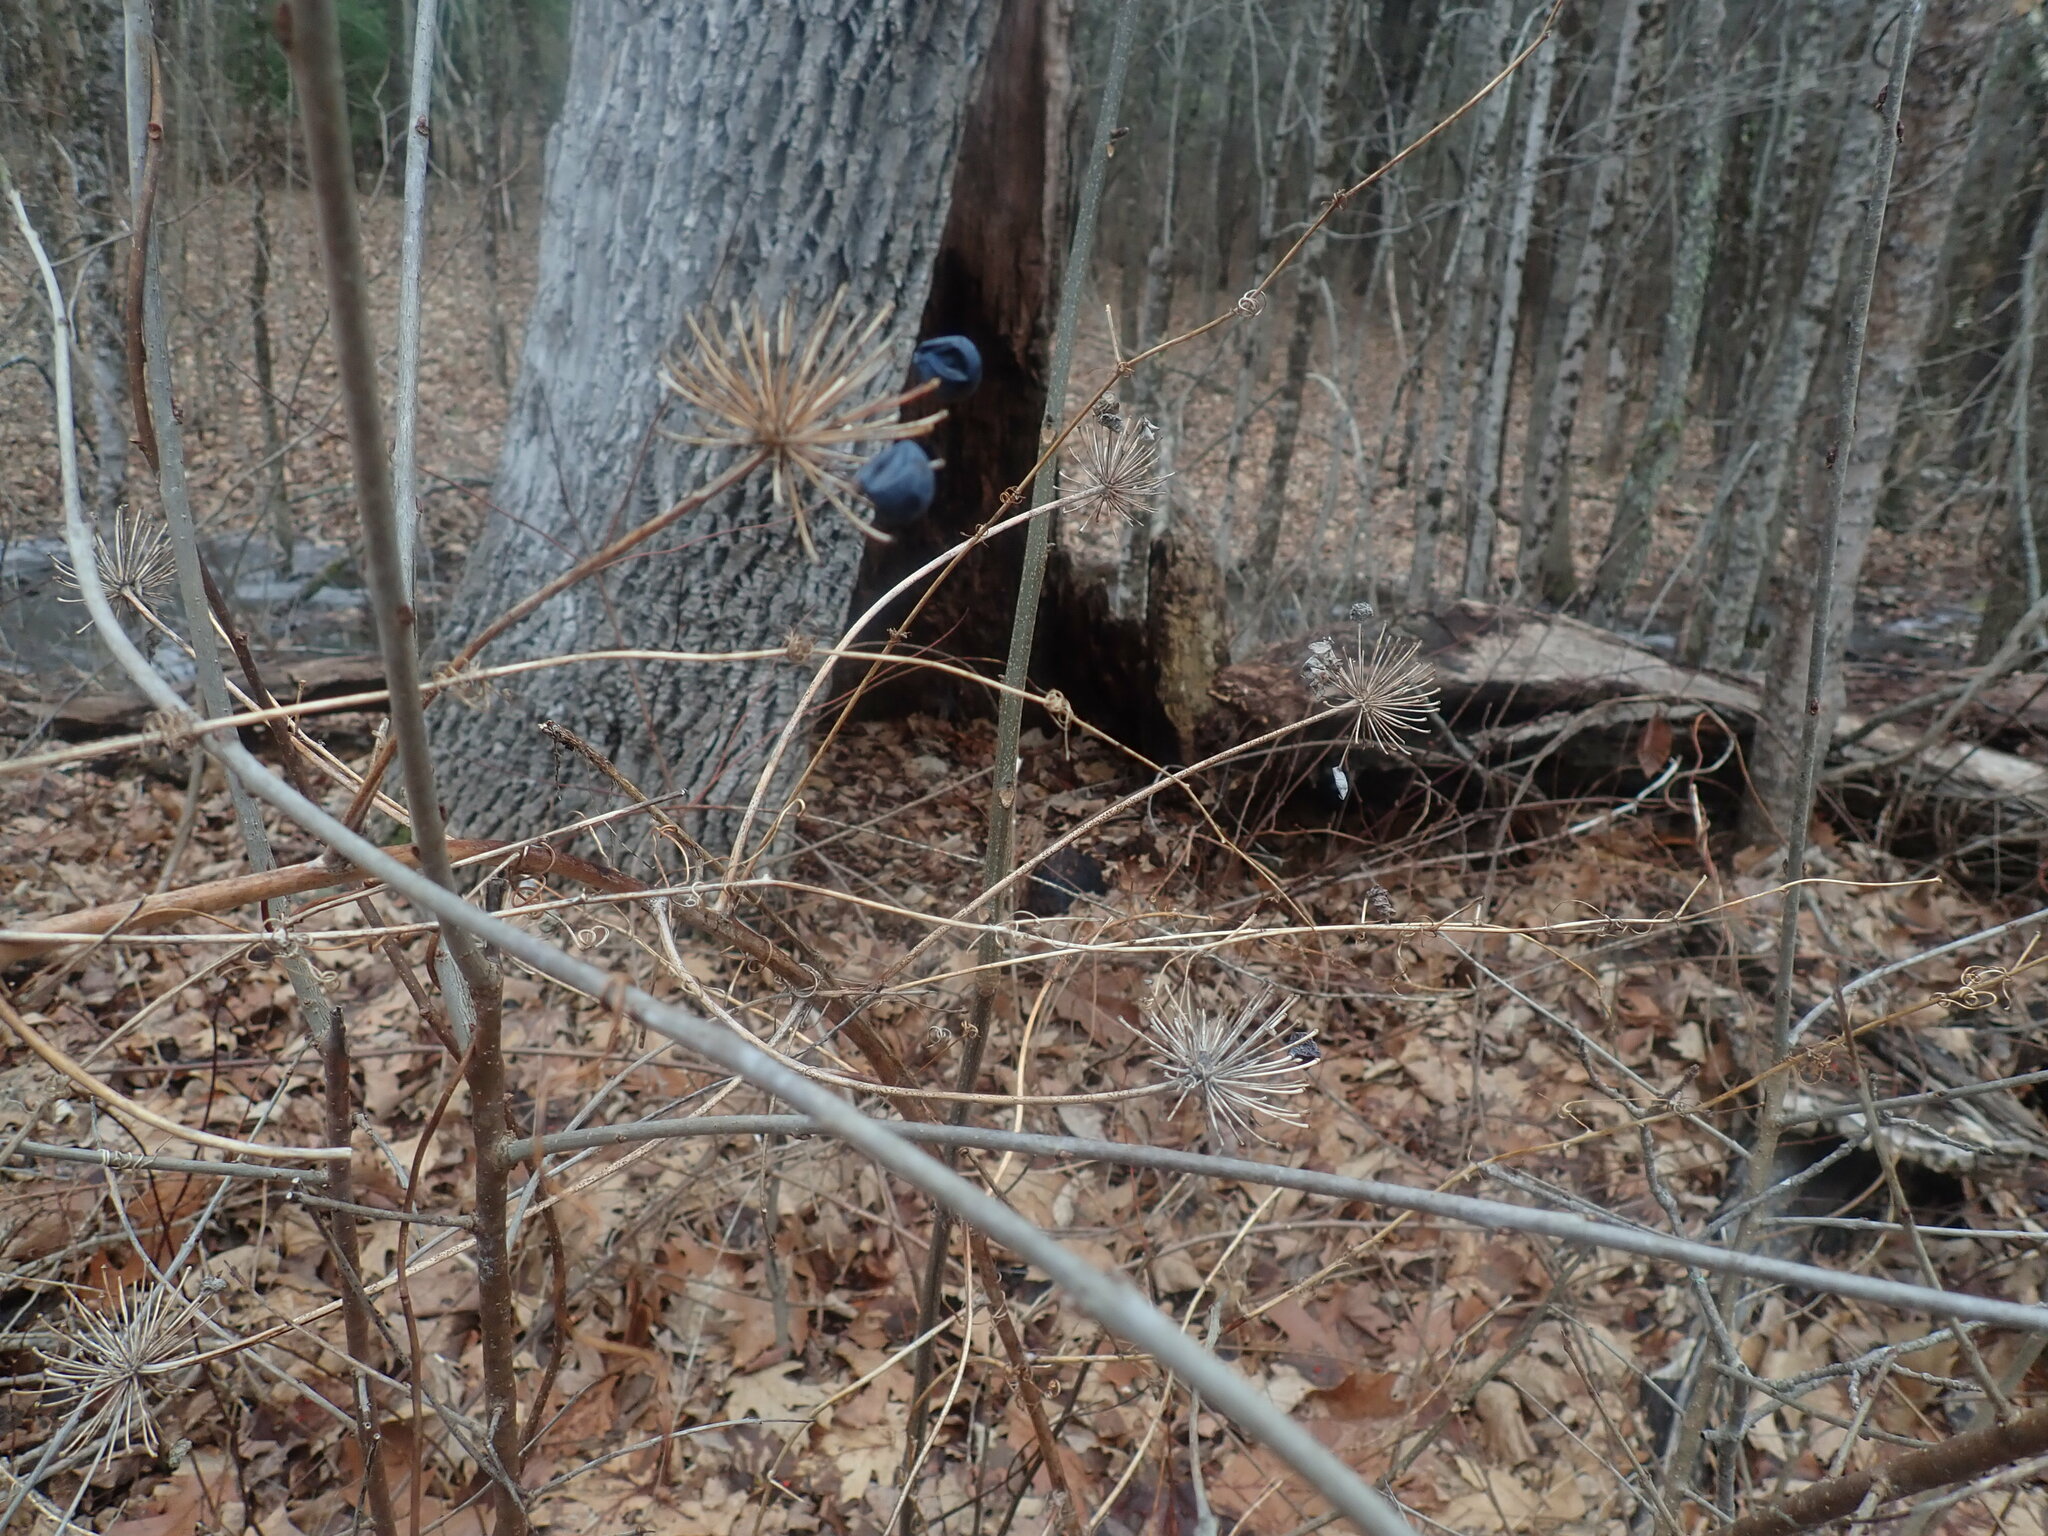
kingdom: Plantae
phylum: Tracheophyta
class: Liliopsida
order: Liliales
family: Smilacaceae
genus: Smilax
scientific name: Smilax herbacea
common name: Jacob's-ladder
